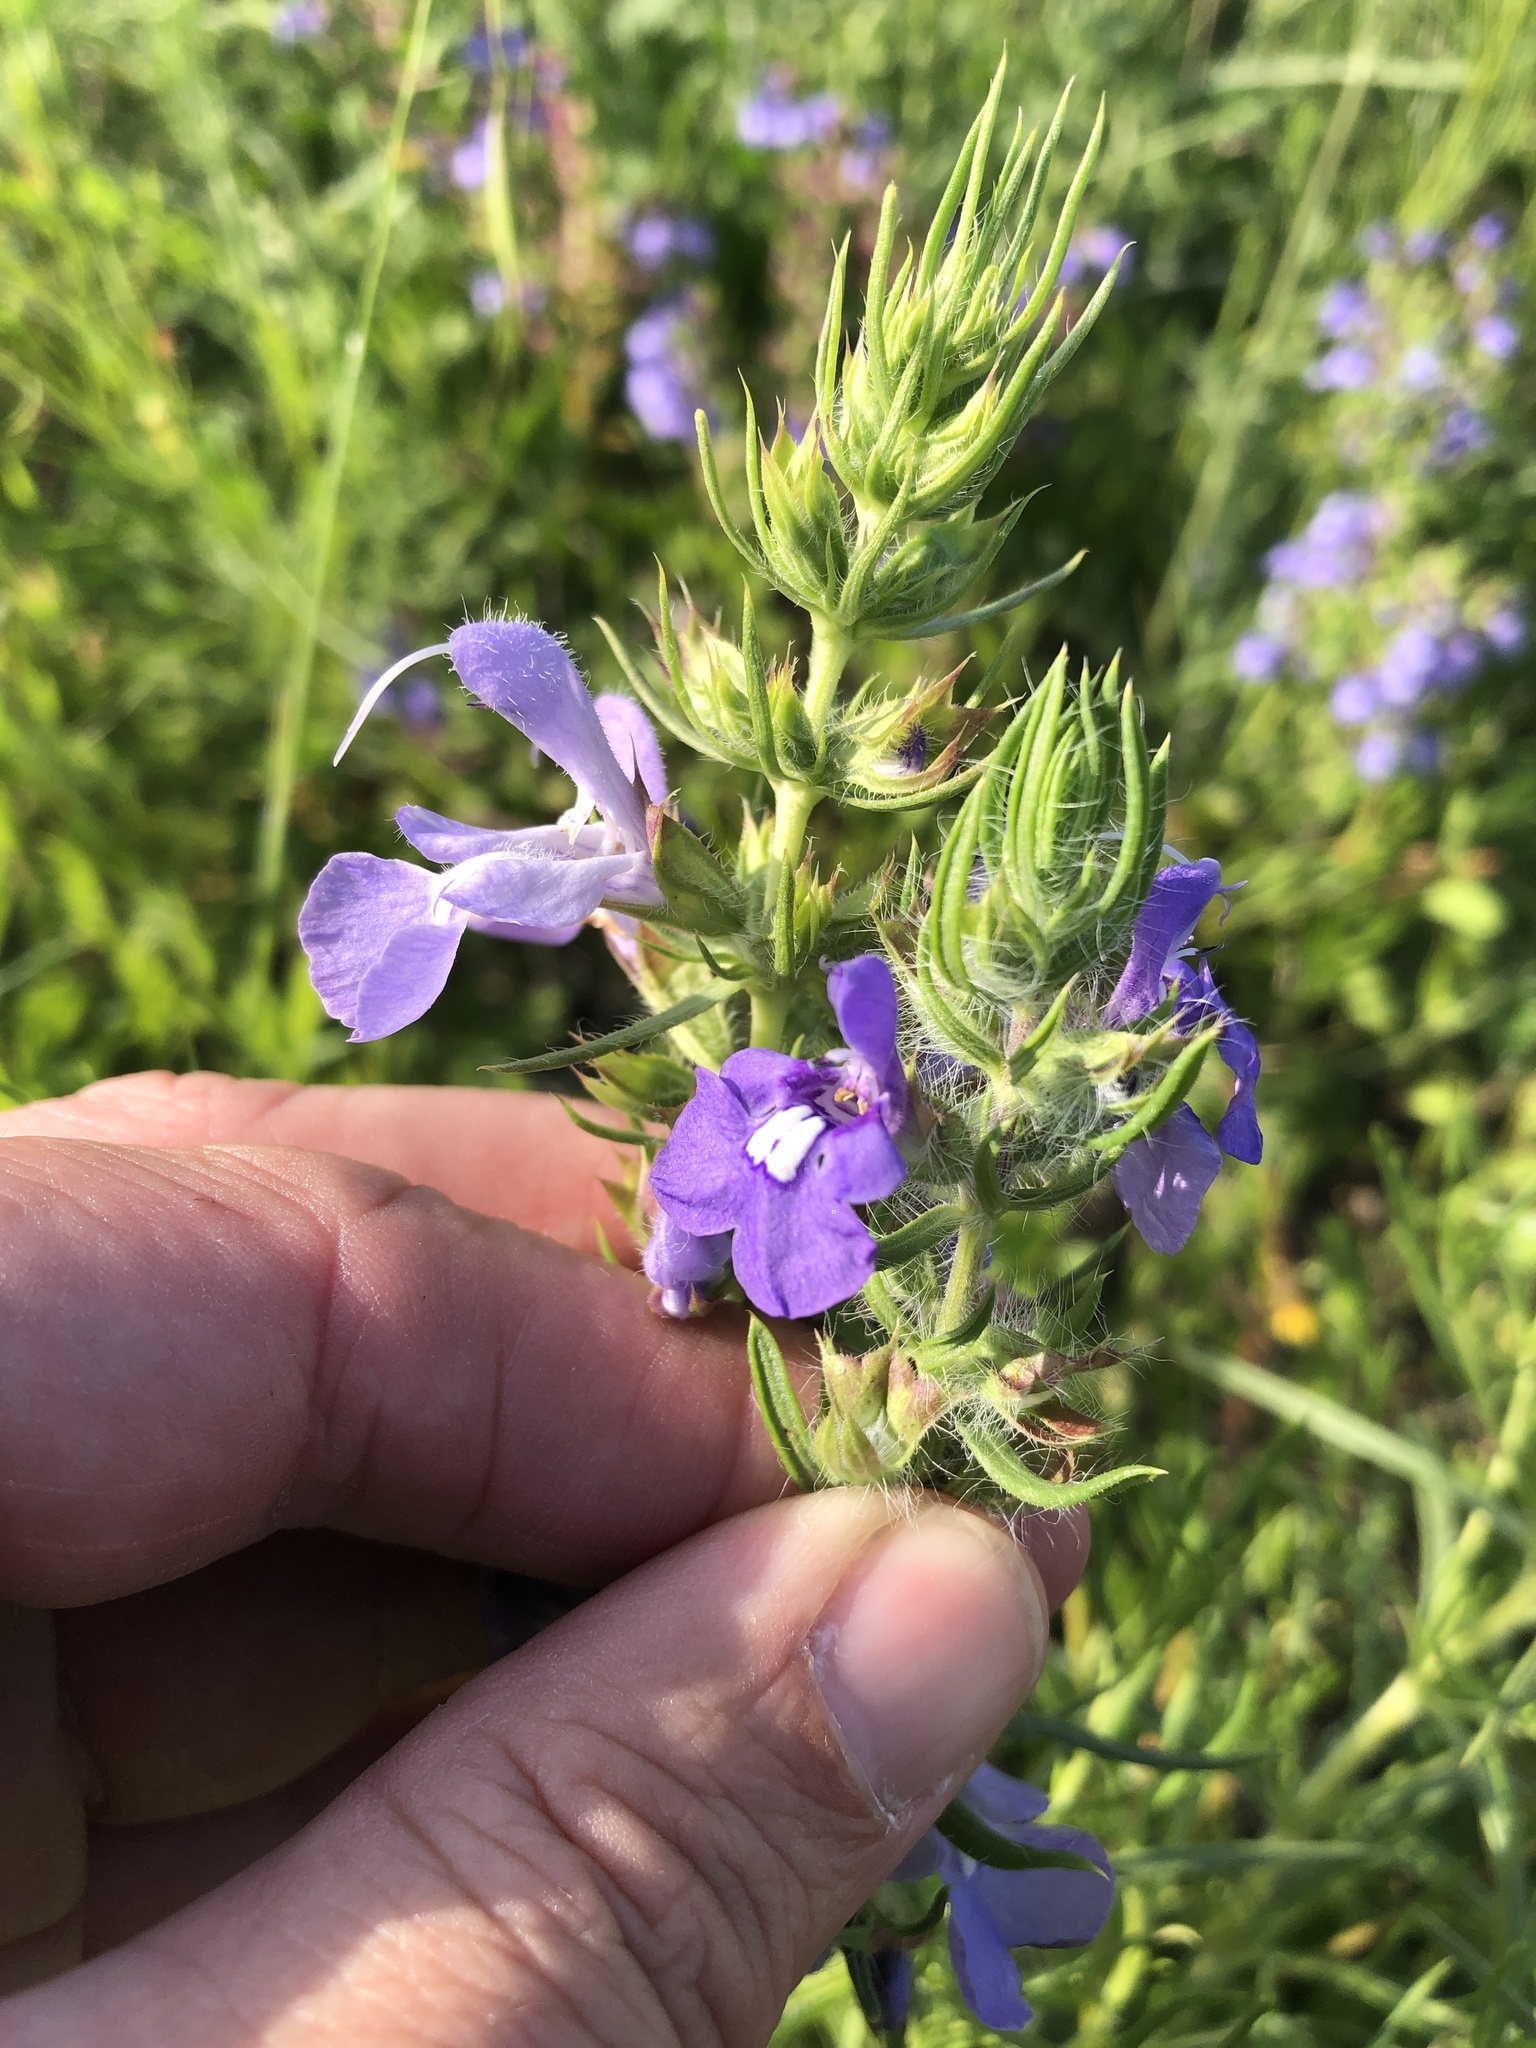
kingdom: Plantae
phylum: Tracheophyta
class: Magnoliopsida
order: Lamiales
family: Lamiaceae
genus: Salvia
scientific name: Salvia texana
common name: Texas sage
